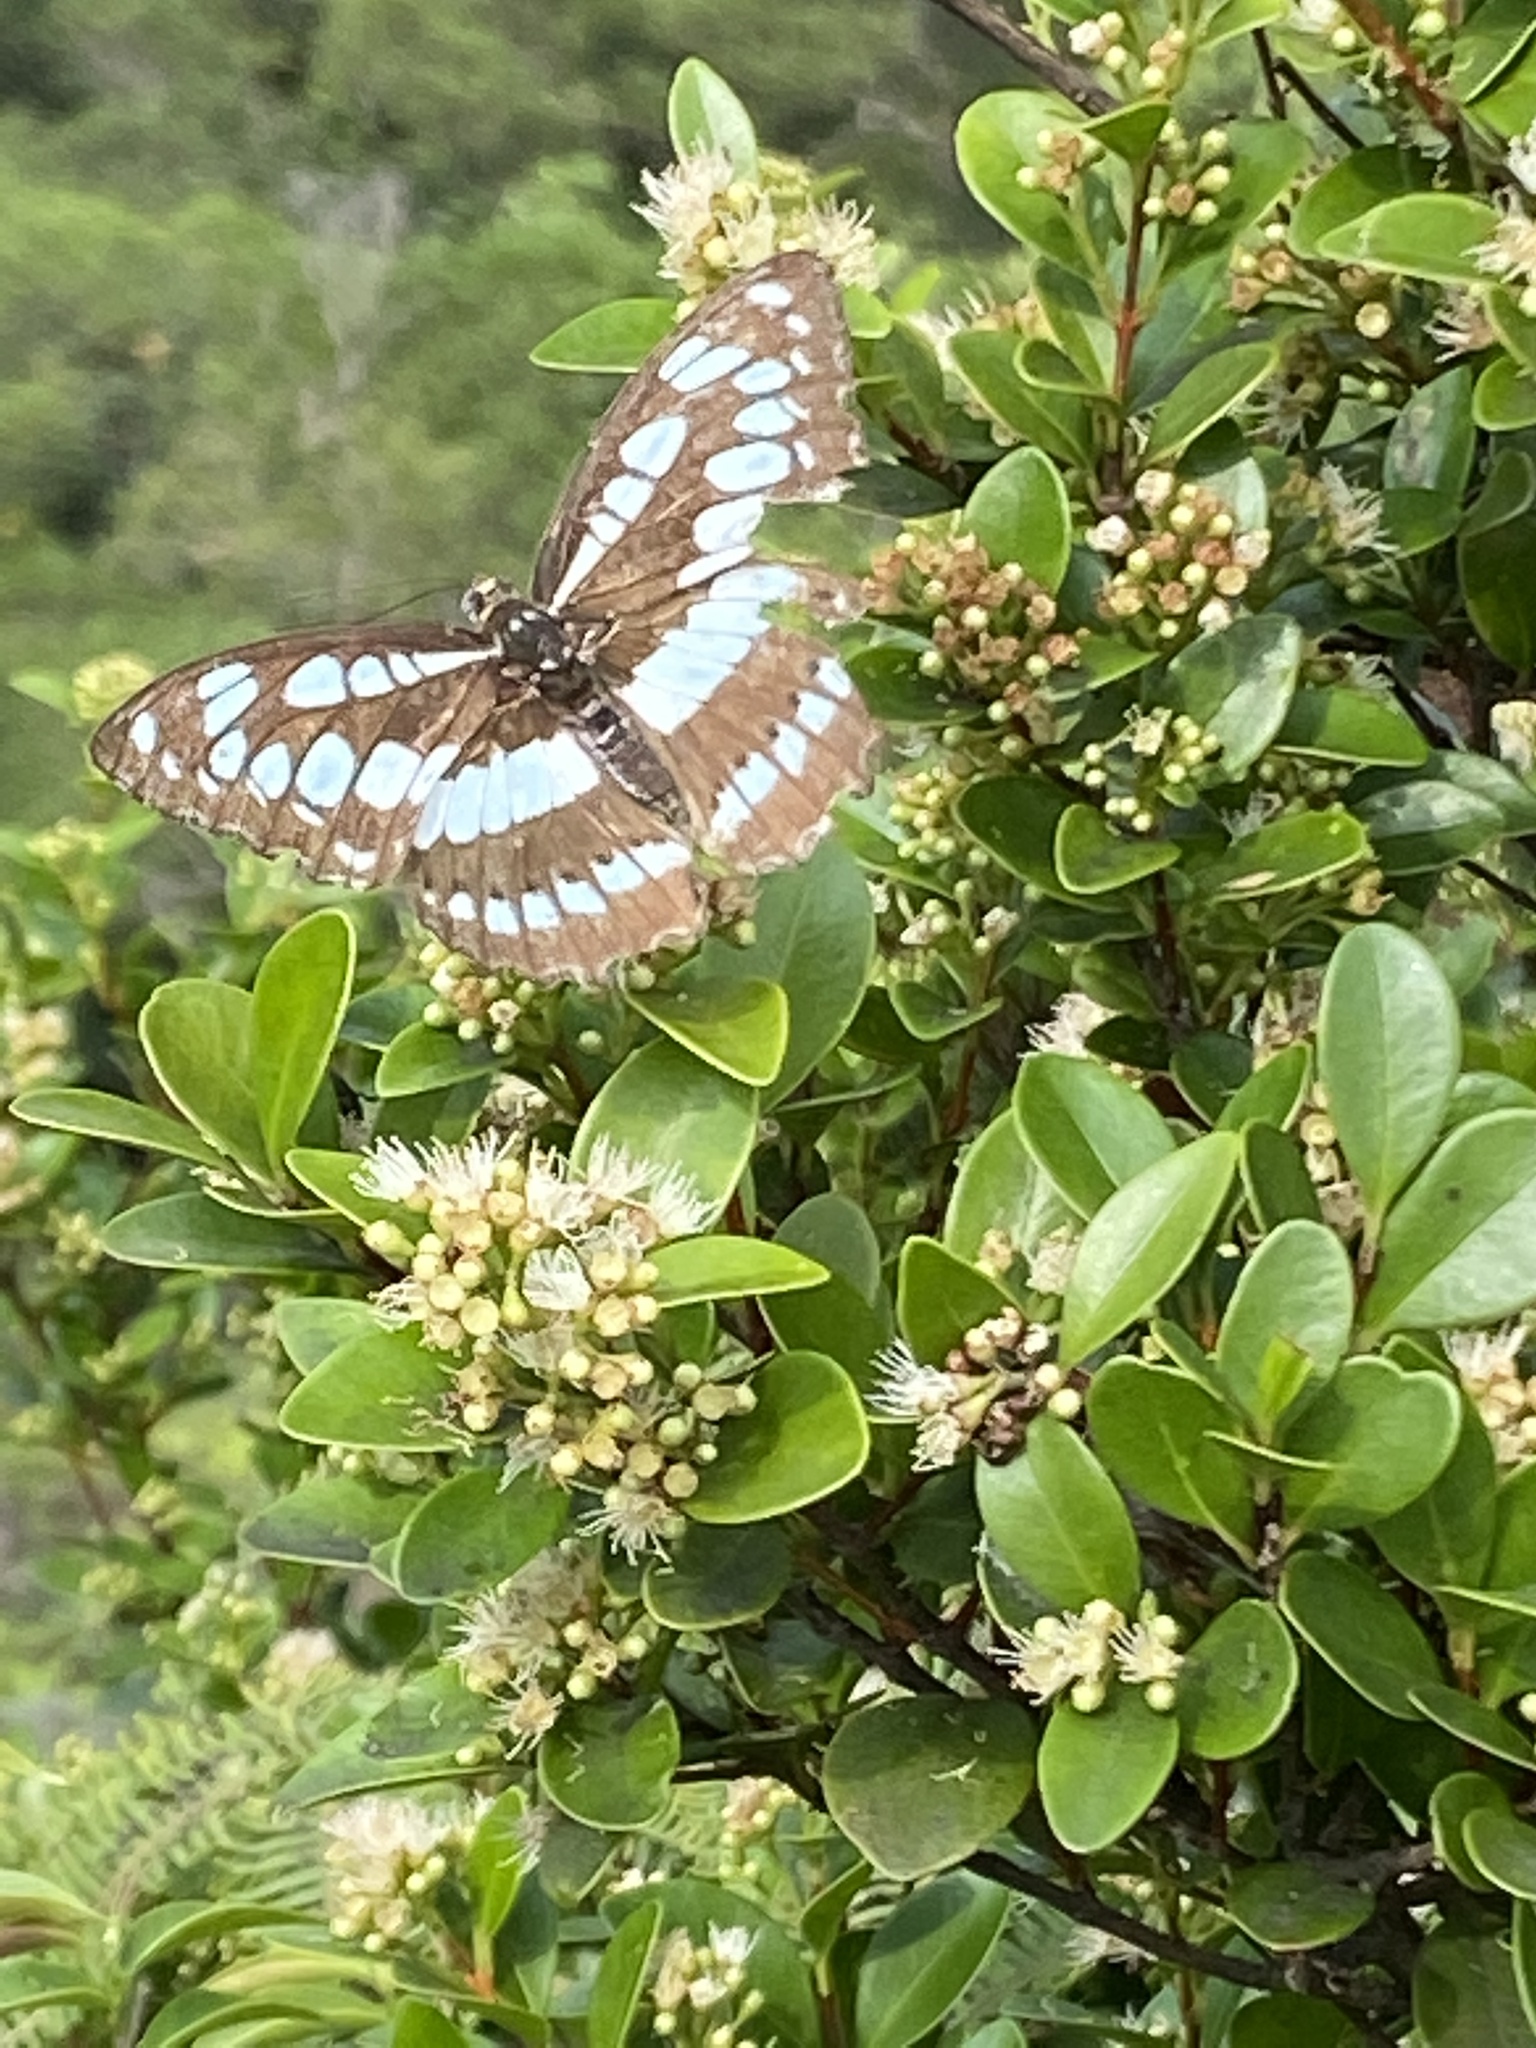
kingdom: Animalia
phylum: Arthropoda
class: Insecta
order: Lepidoptera
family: Nymphalidae
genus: Parathyma
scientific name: Parathyma perius
